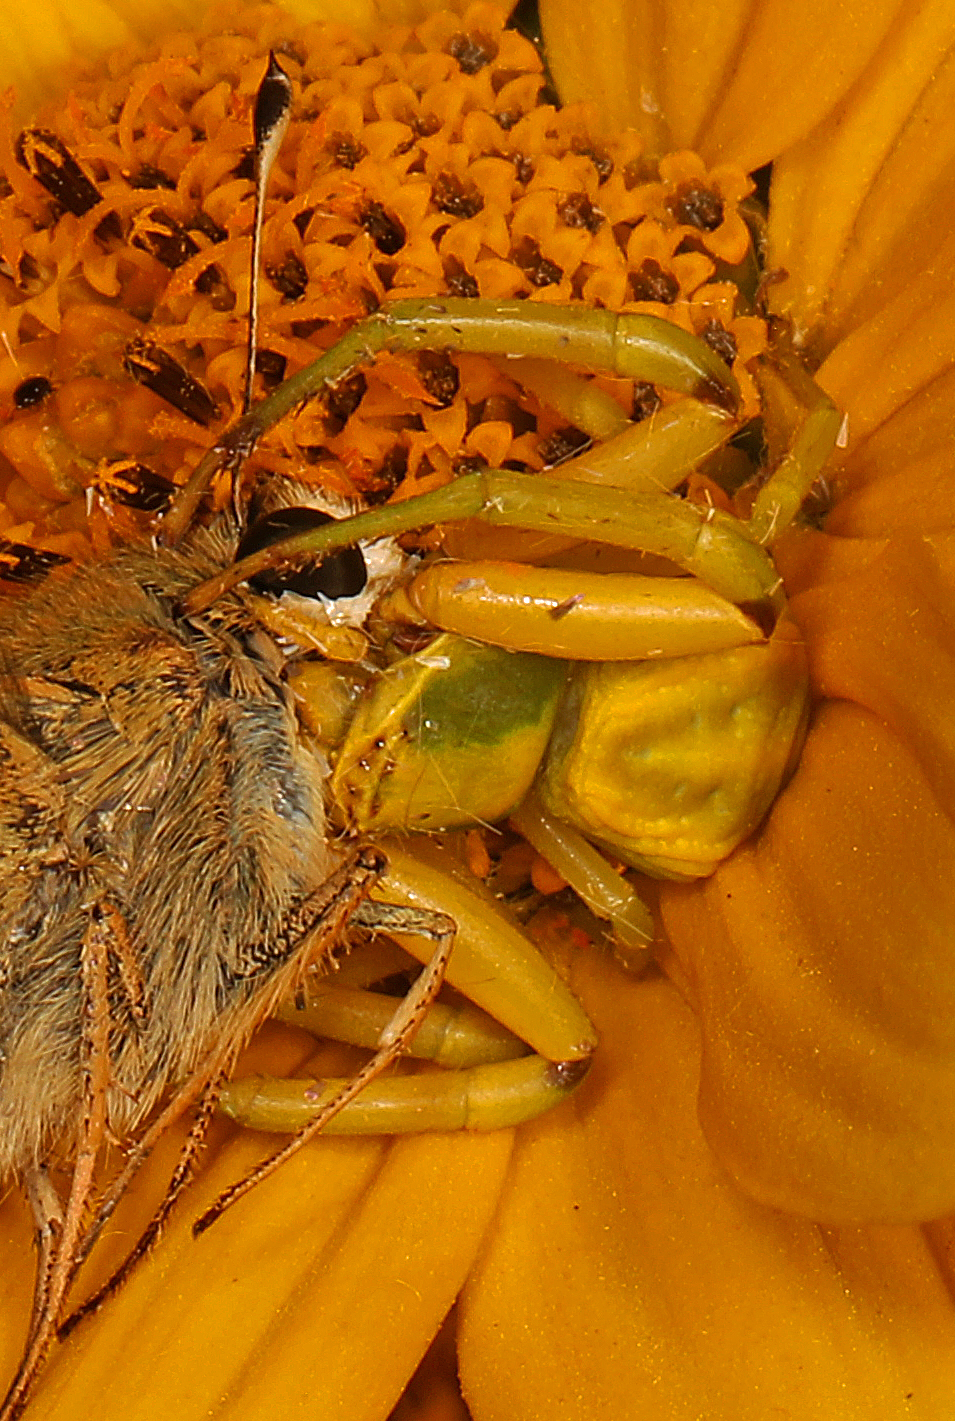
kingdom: Animalia
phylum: Arthropoda
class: Arachnida
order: Araneae
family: Thomisidae
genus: Misumenoides
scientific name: Misumenoides formosipes
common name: White-banded crab spider
